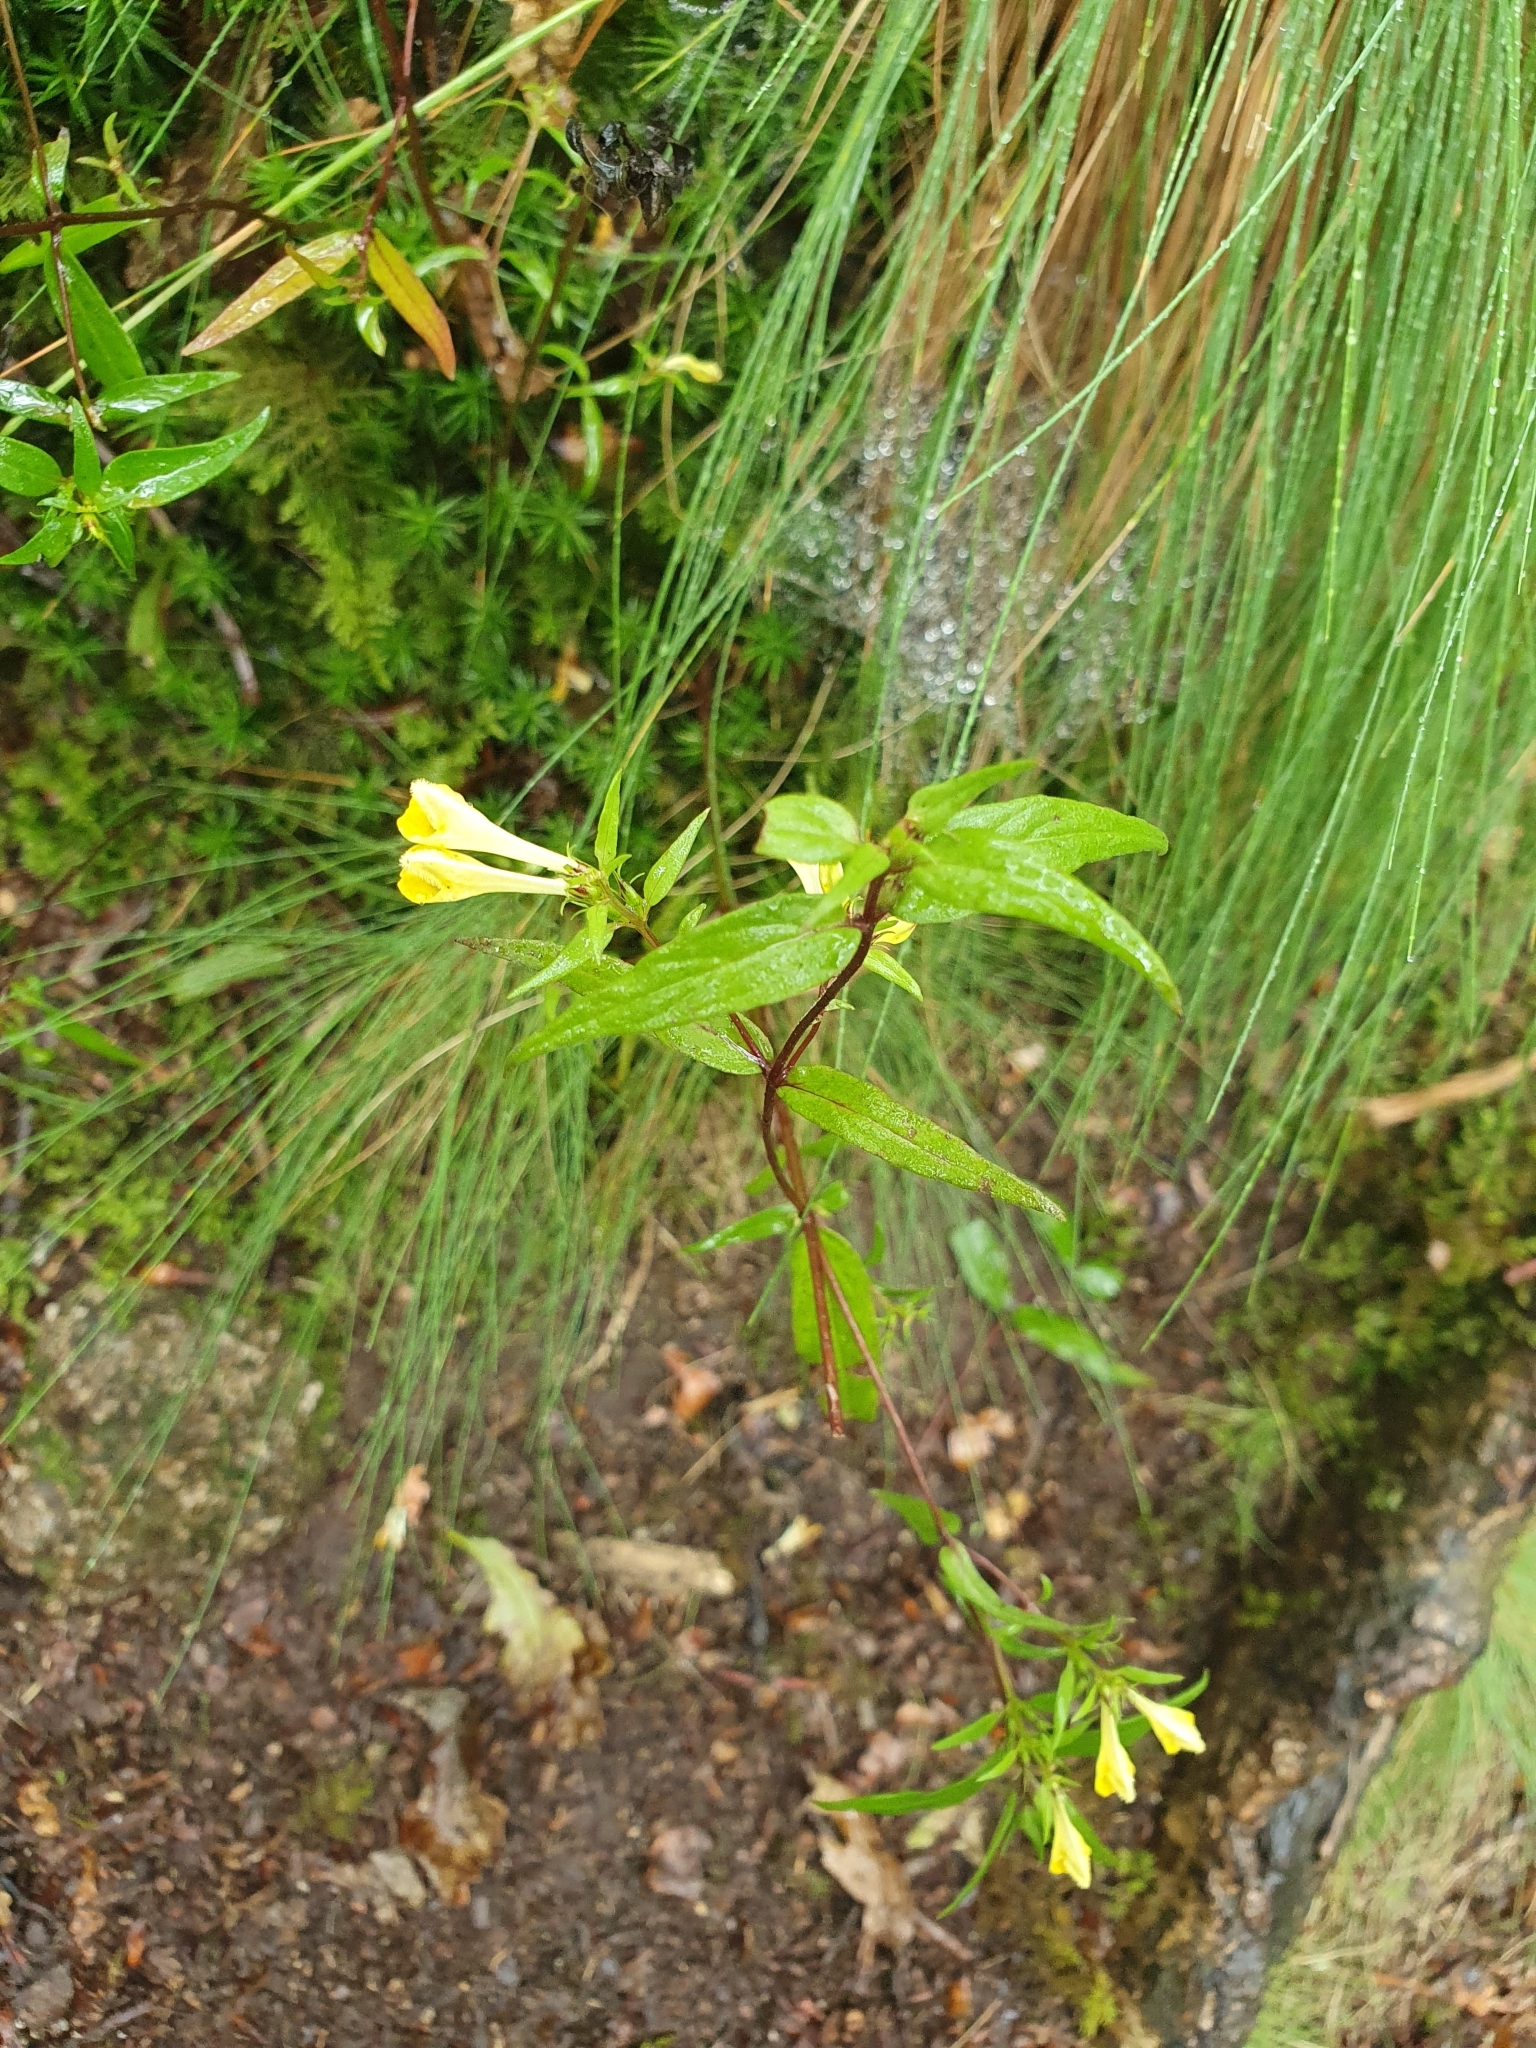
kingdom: Plantae
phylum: Tracheophyta
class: Magnoliopsida
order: Lamiales
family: Orobanchaceae
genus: Melampyrum
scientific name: Melampyrum pratense
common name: Common cow-wheat
